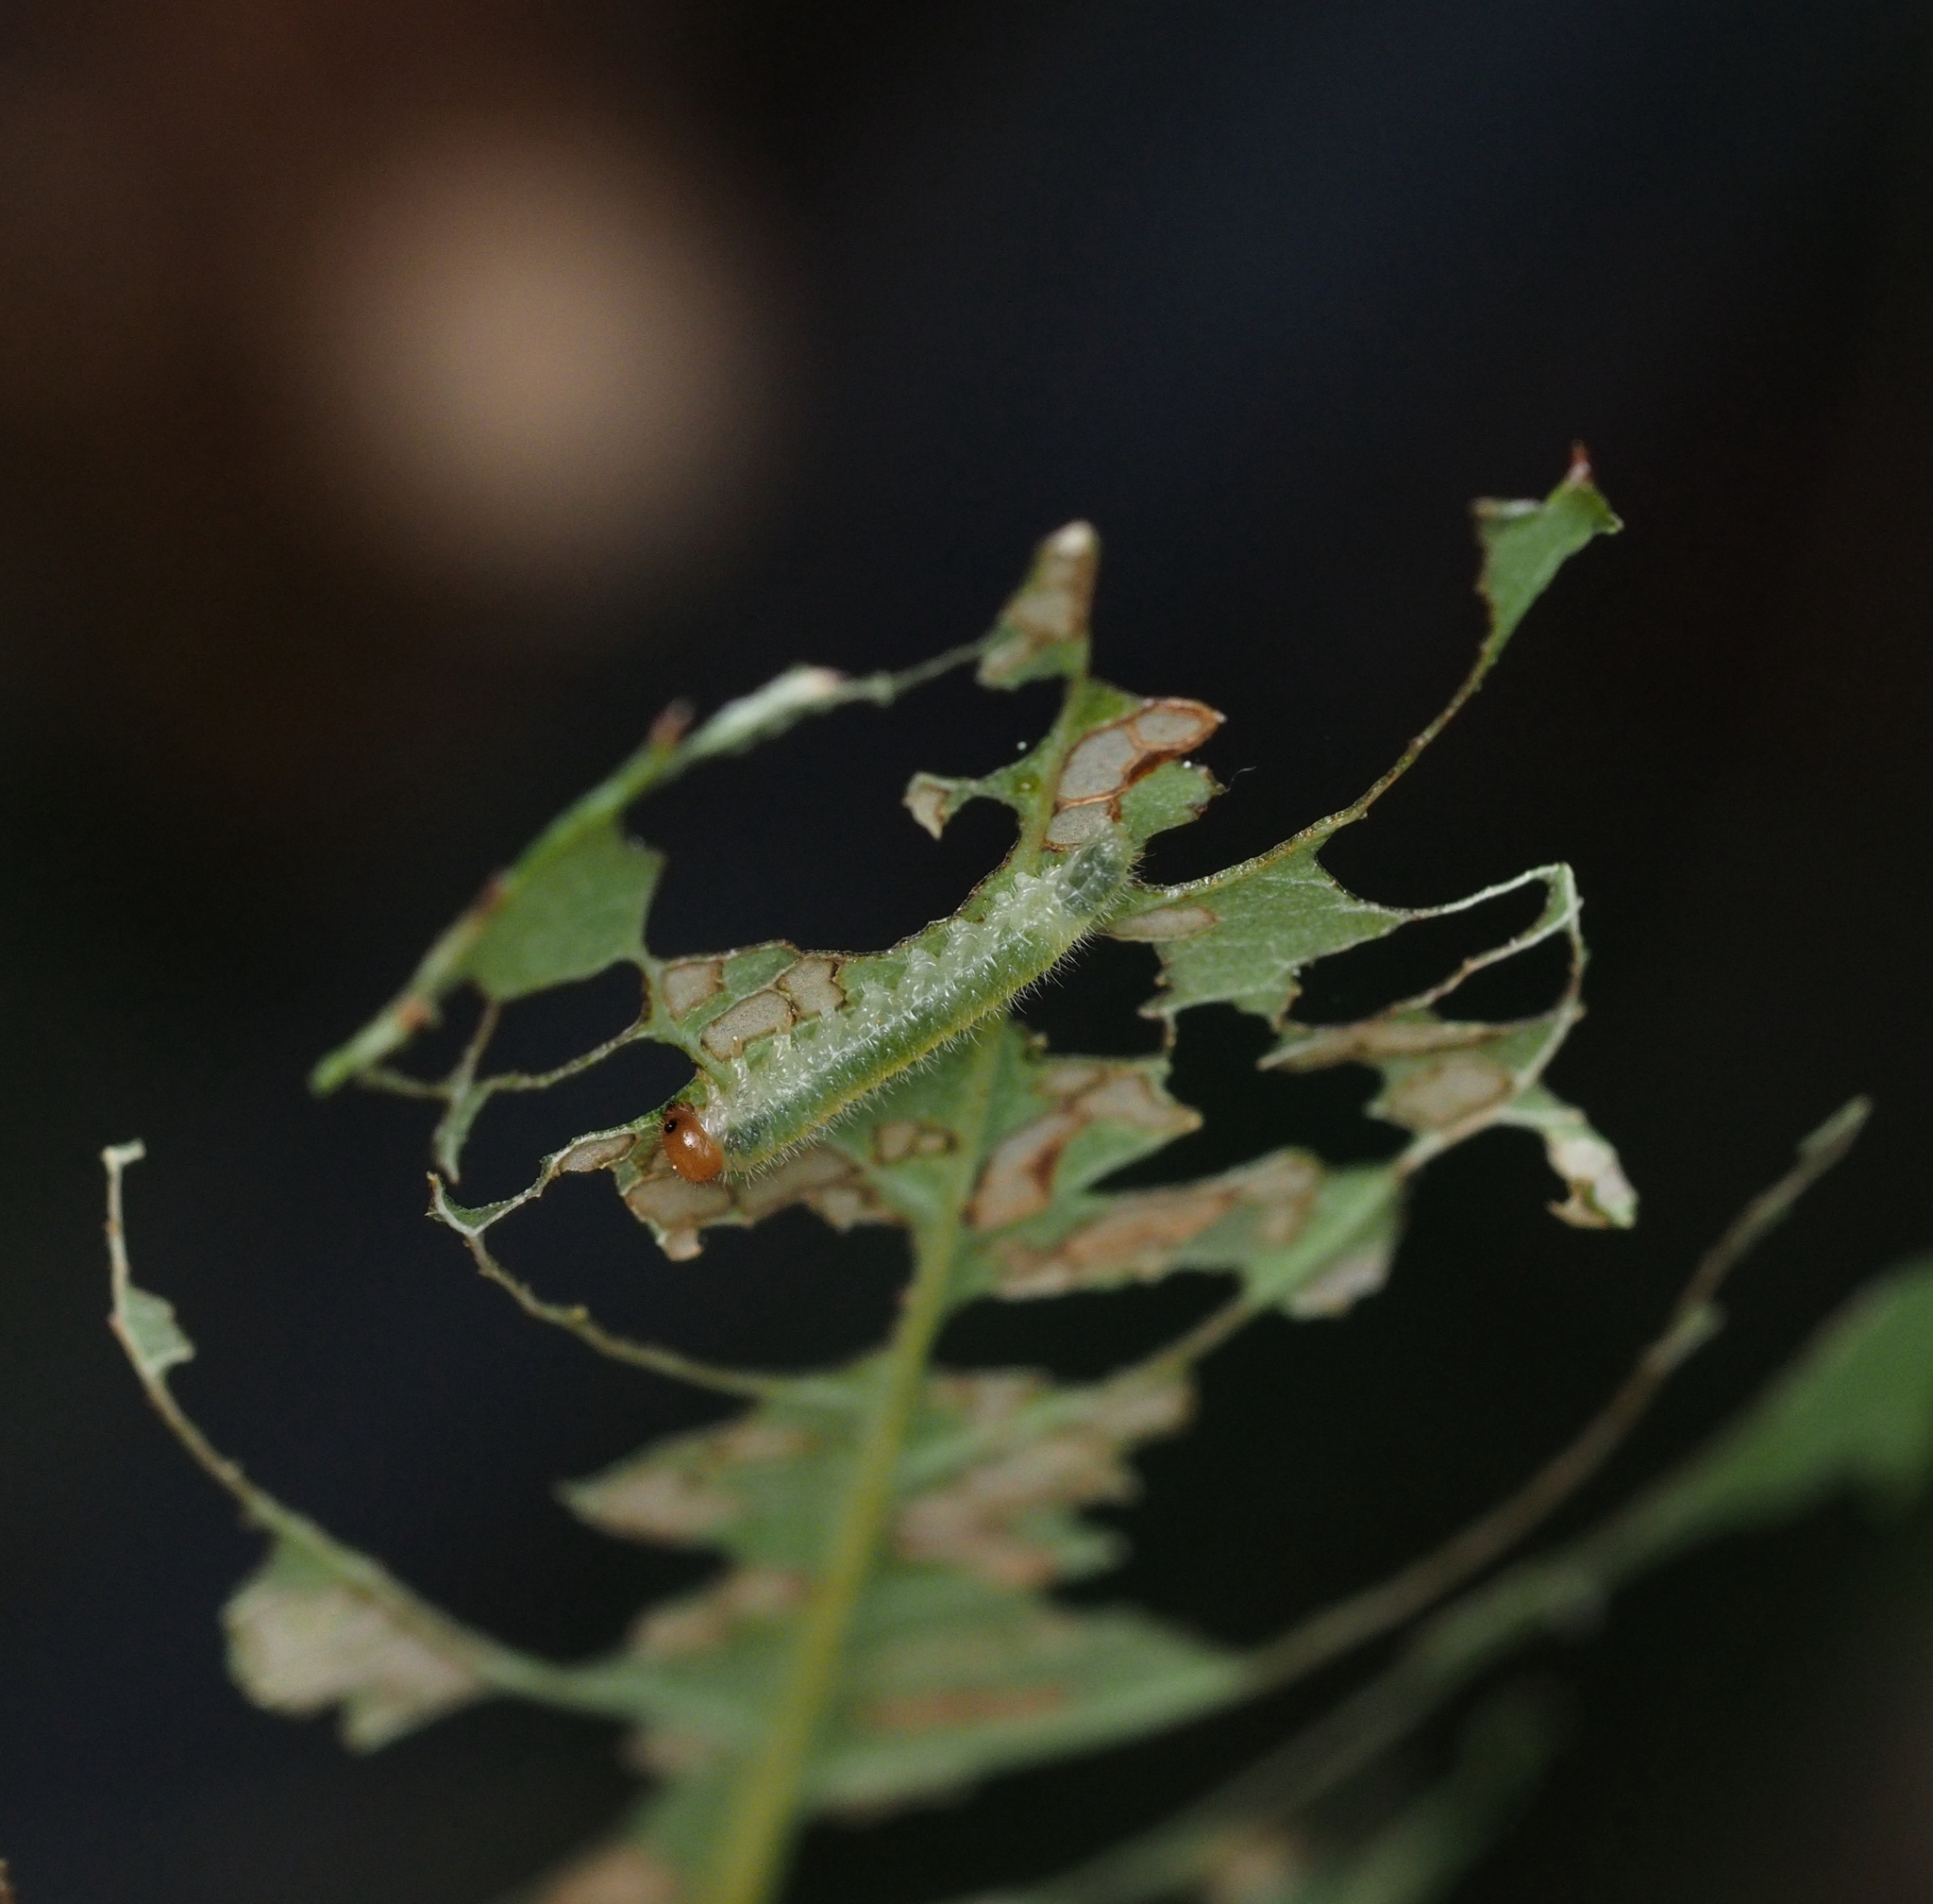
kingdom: Animalia
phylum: Arthropoda
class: Insecta
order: Hymenoptera
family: Tenthredinidae
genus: Cladius
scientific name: Cladius pectinicornis
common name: Sawfly
